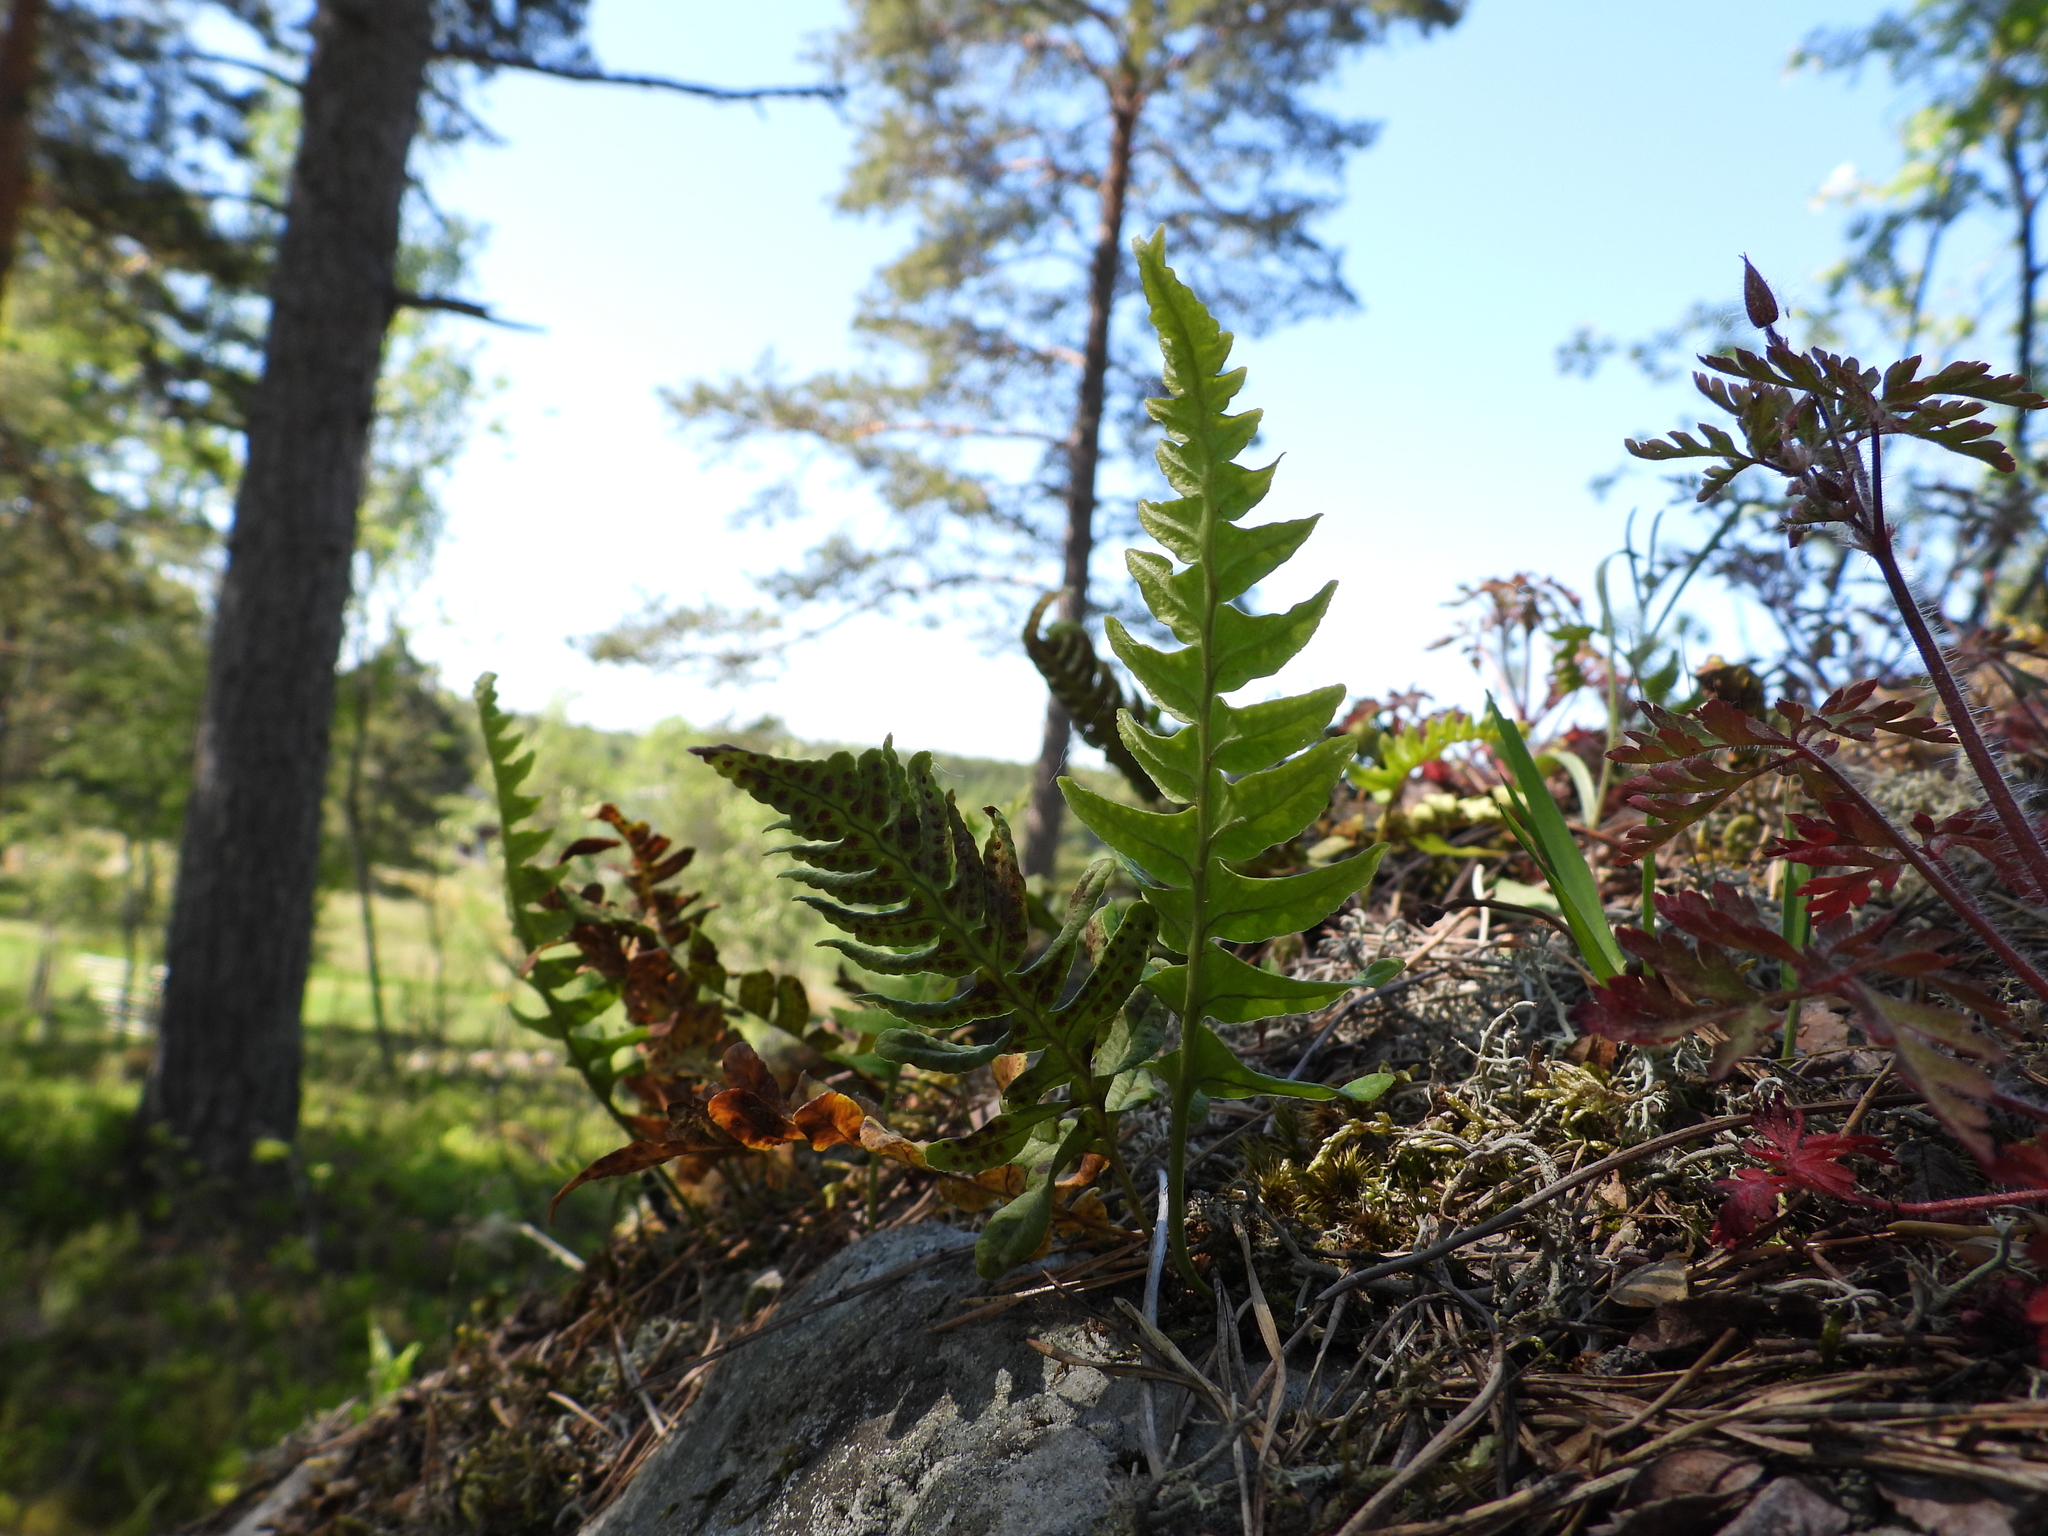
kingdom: Plantae
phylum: Tracheophyta
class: Polypodiopsida
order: Polypodiales
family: Polypodiaceae
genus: Polypodium
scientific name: Polypodium vulgare
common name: Common polypody
